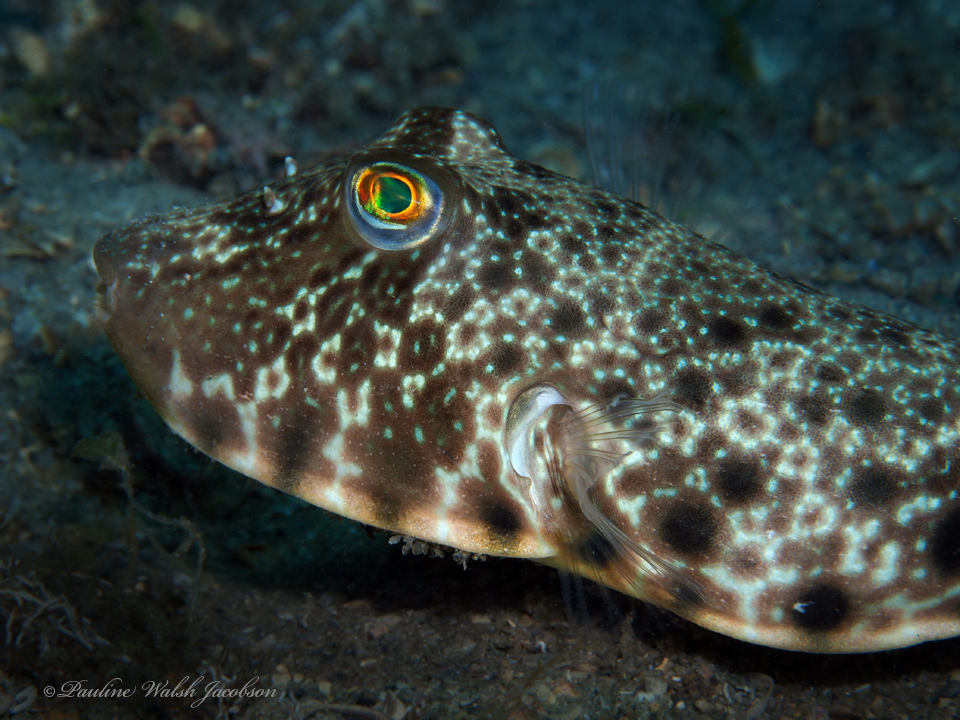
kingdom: Animalia
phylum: Chordata
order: Tetraodontiformes
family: Tetraodontidae
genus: Sphoeroides
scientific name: Sphoeroides nephelus
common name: Southern puffer
